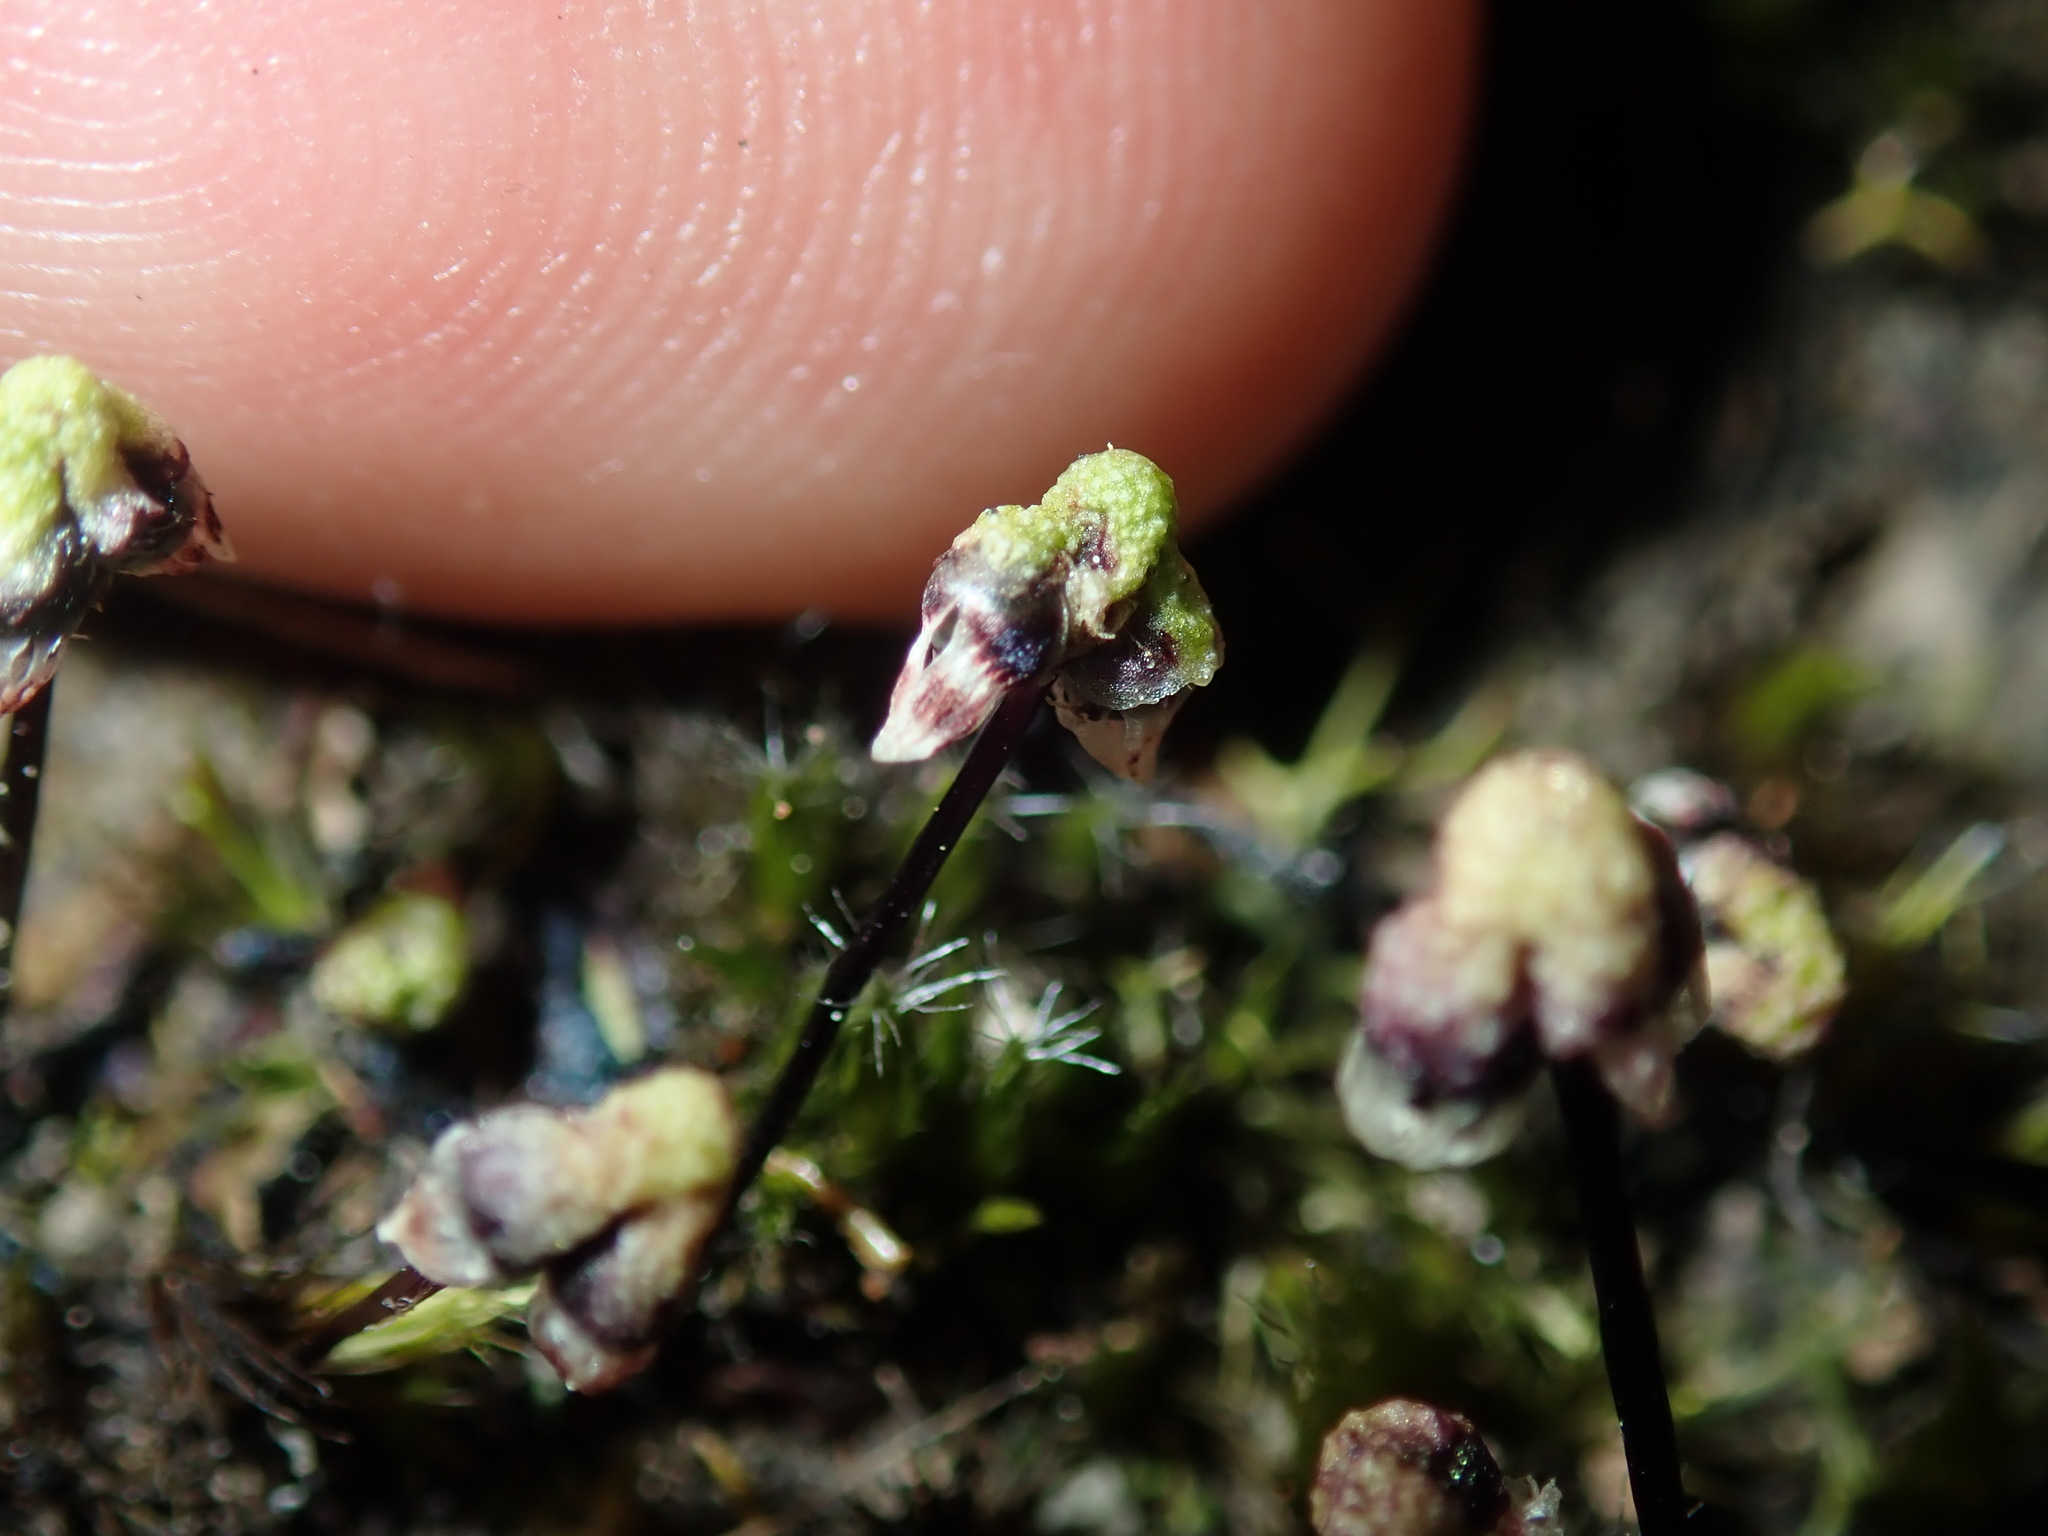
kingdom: Plantae
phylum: Marchantiophyta
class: Marchantiopsida
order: Marchantiales
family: Aytoniaceae
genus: Asterella
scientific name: Asterella drummondii
